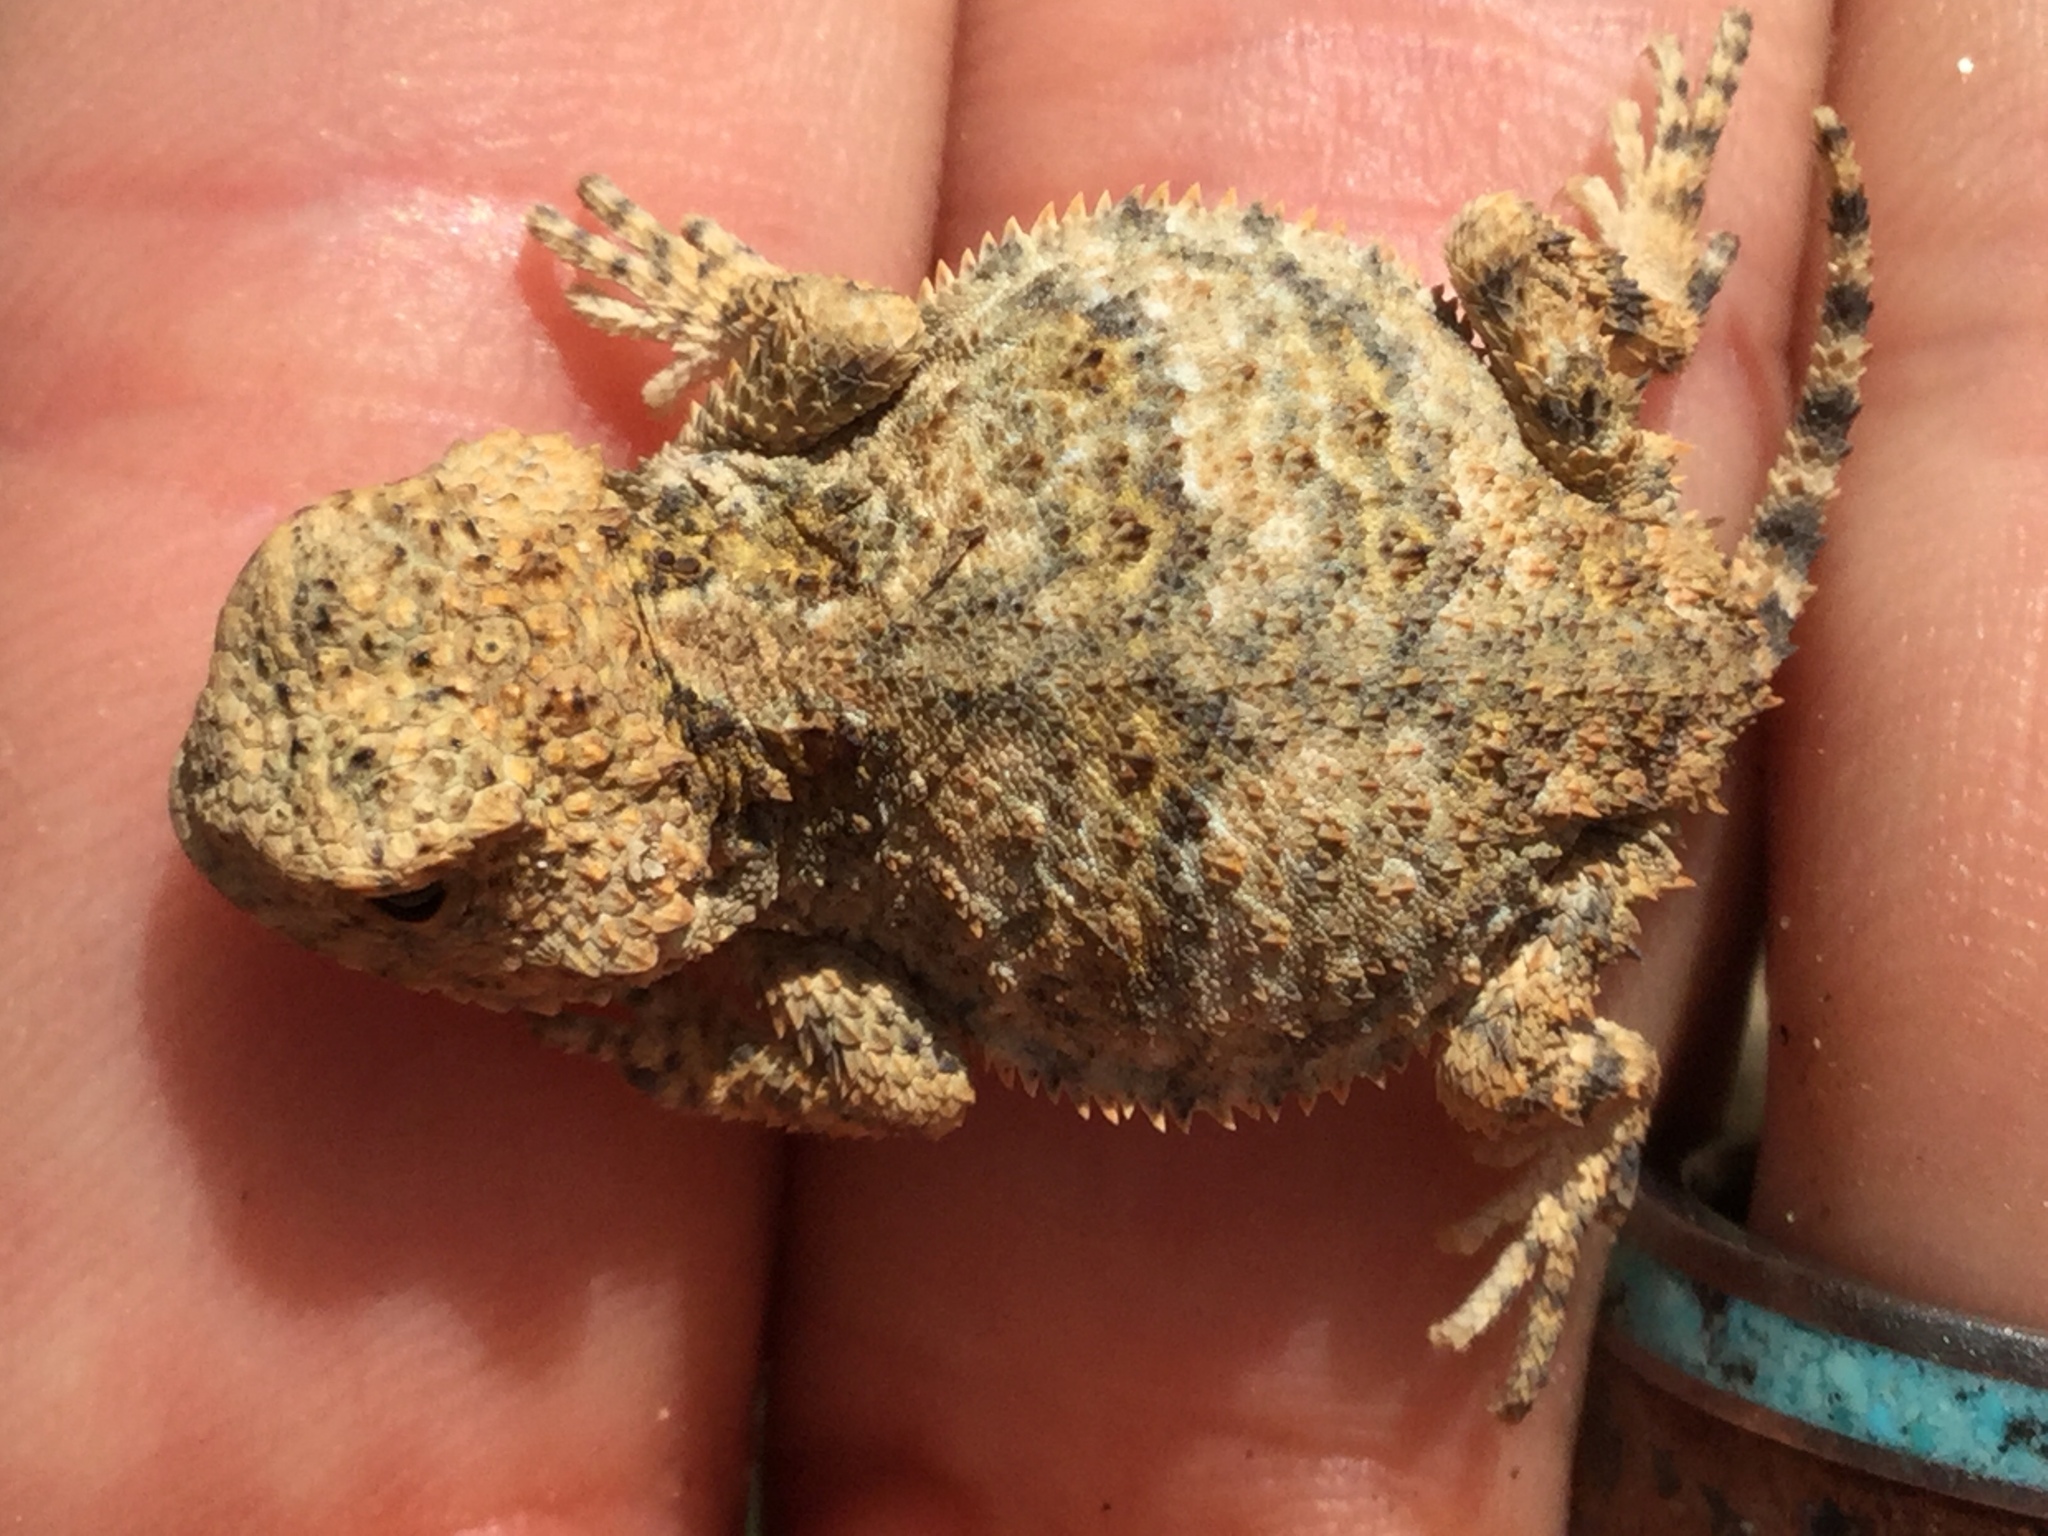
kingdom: Animalia
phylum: Chordata
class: Squamata
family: Phrynosomatidae
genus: Phrynosoma
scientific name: Phrynosoma hernandesi
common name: Greater short-horned lizard
